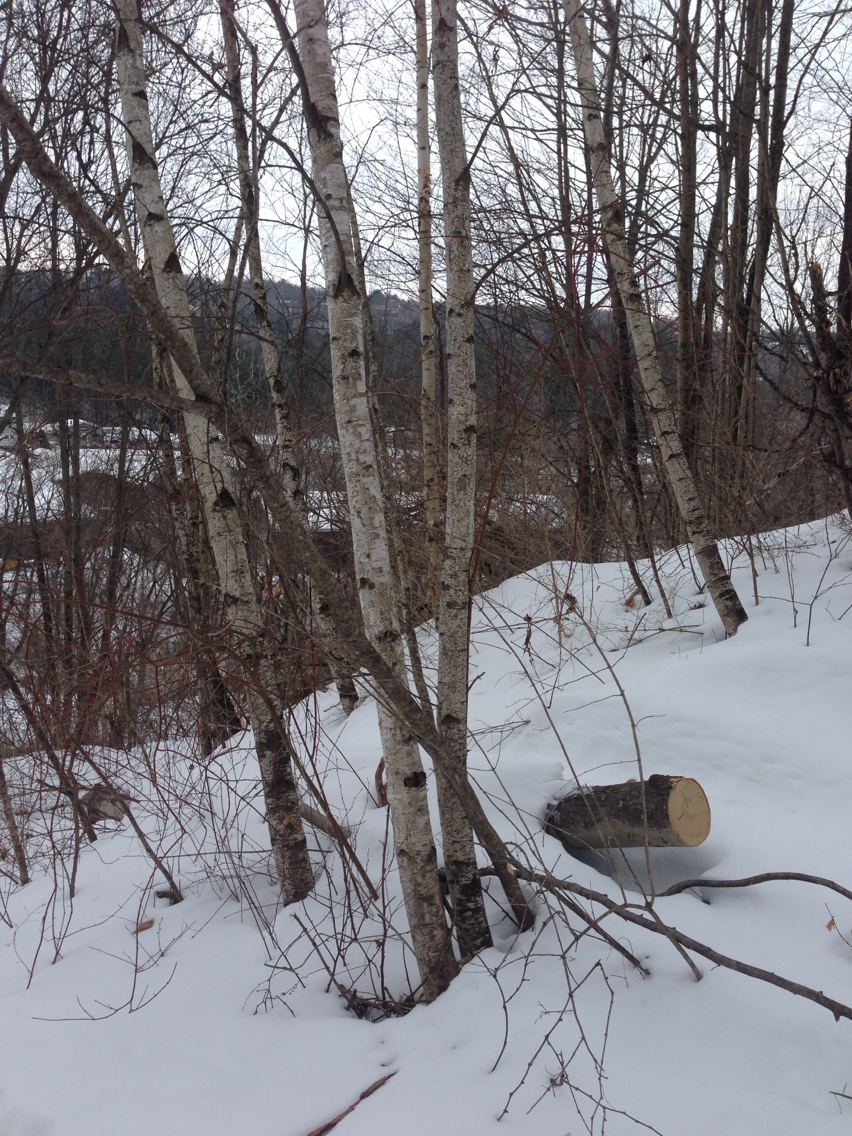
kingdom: Plantae
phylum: Tracheophyta
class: Magnoliopsida
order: Fagales
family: Betulaceae
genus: Betula
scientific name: Betula populifolia
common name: Fire birch
